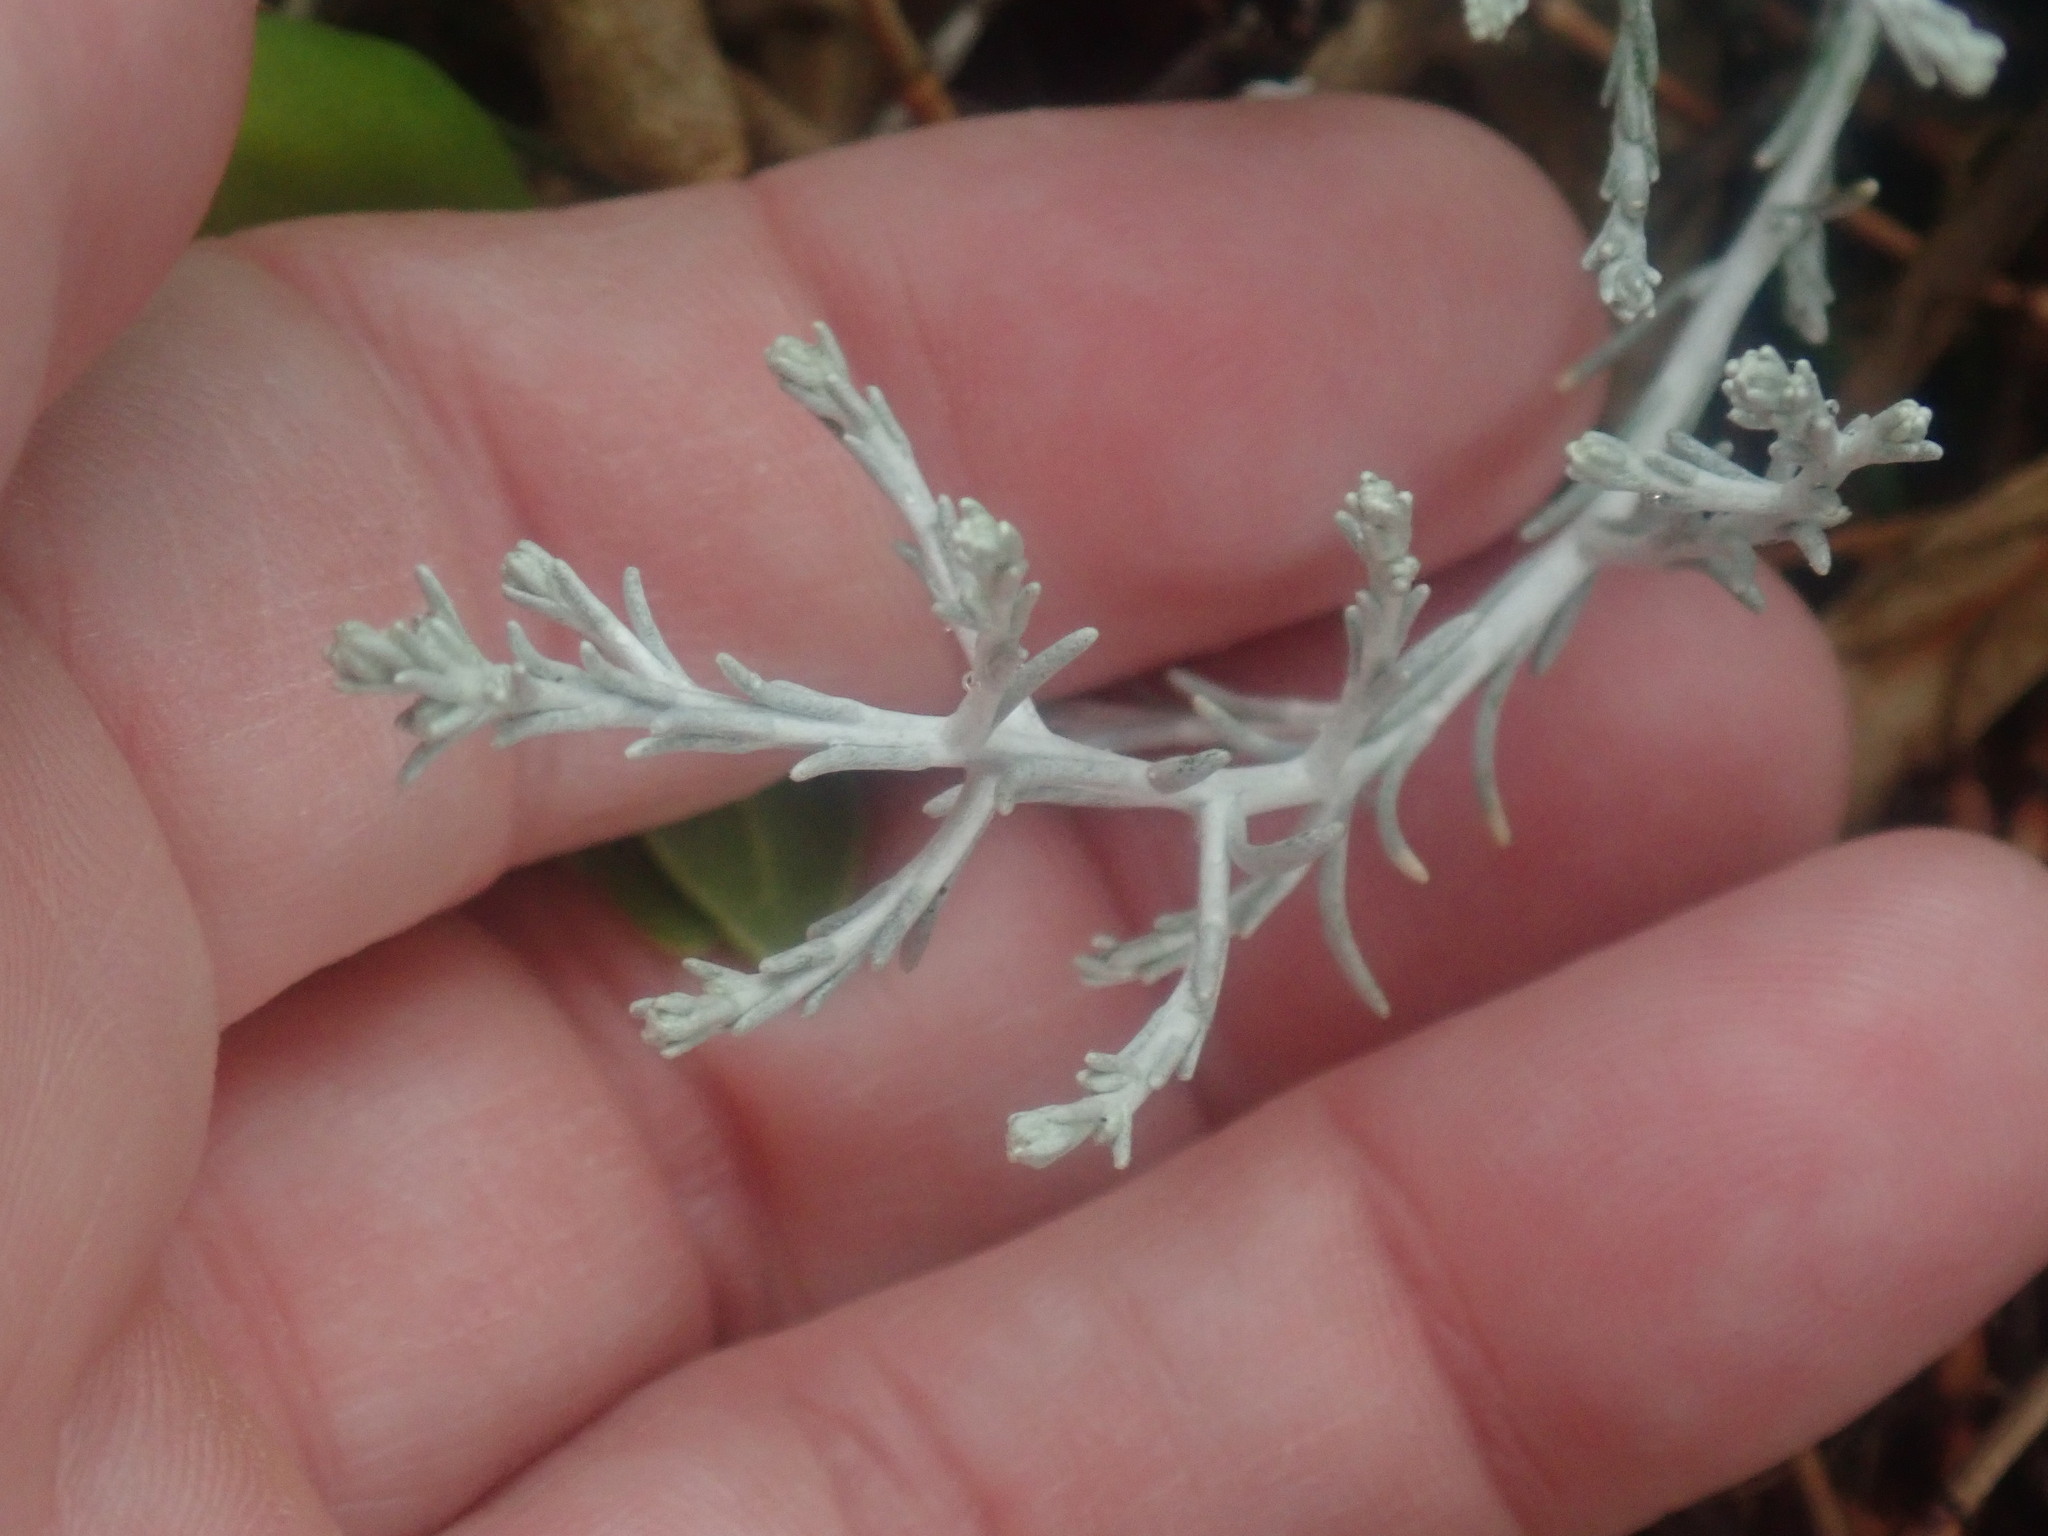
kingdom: Plantae
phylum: Tracheophyta
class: Magnoliopsida
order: Asterales
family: Asteraceae
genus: Calocephalus
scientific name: Calocephalus brownii
